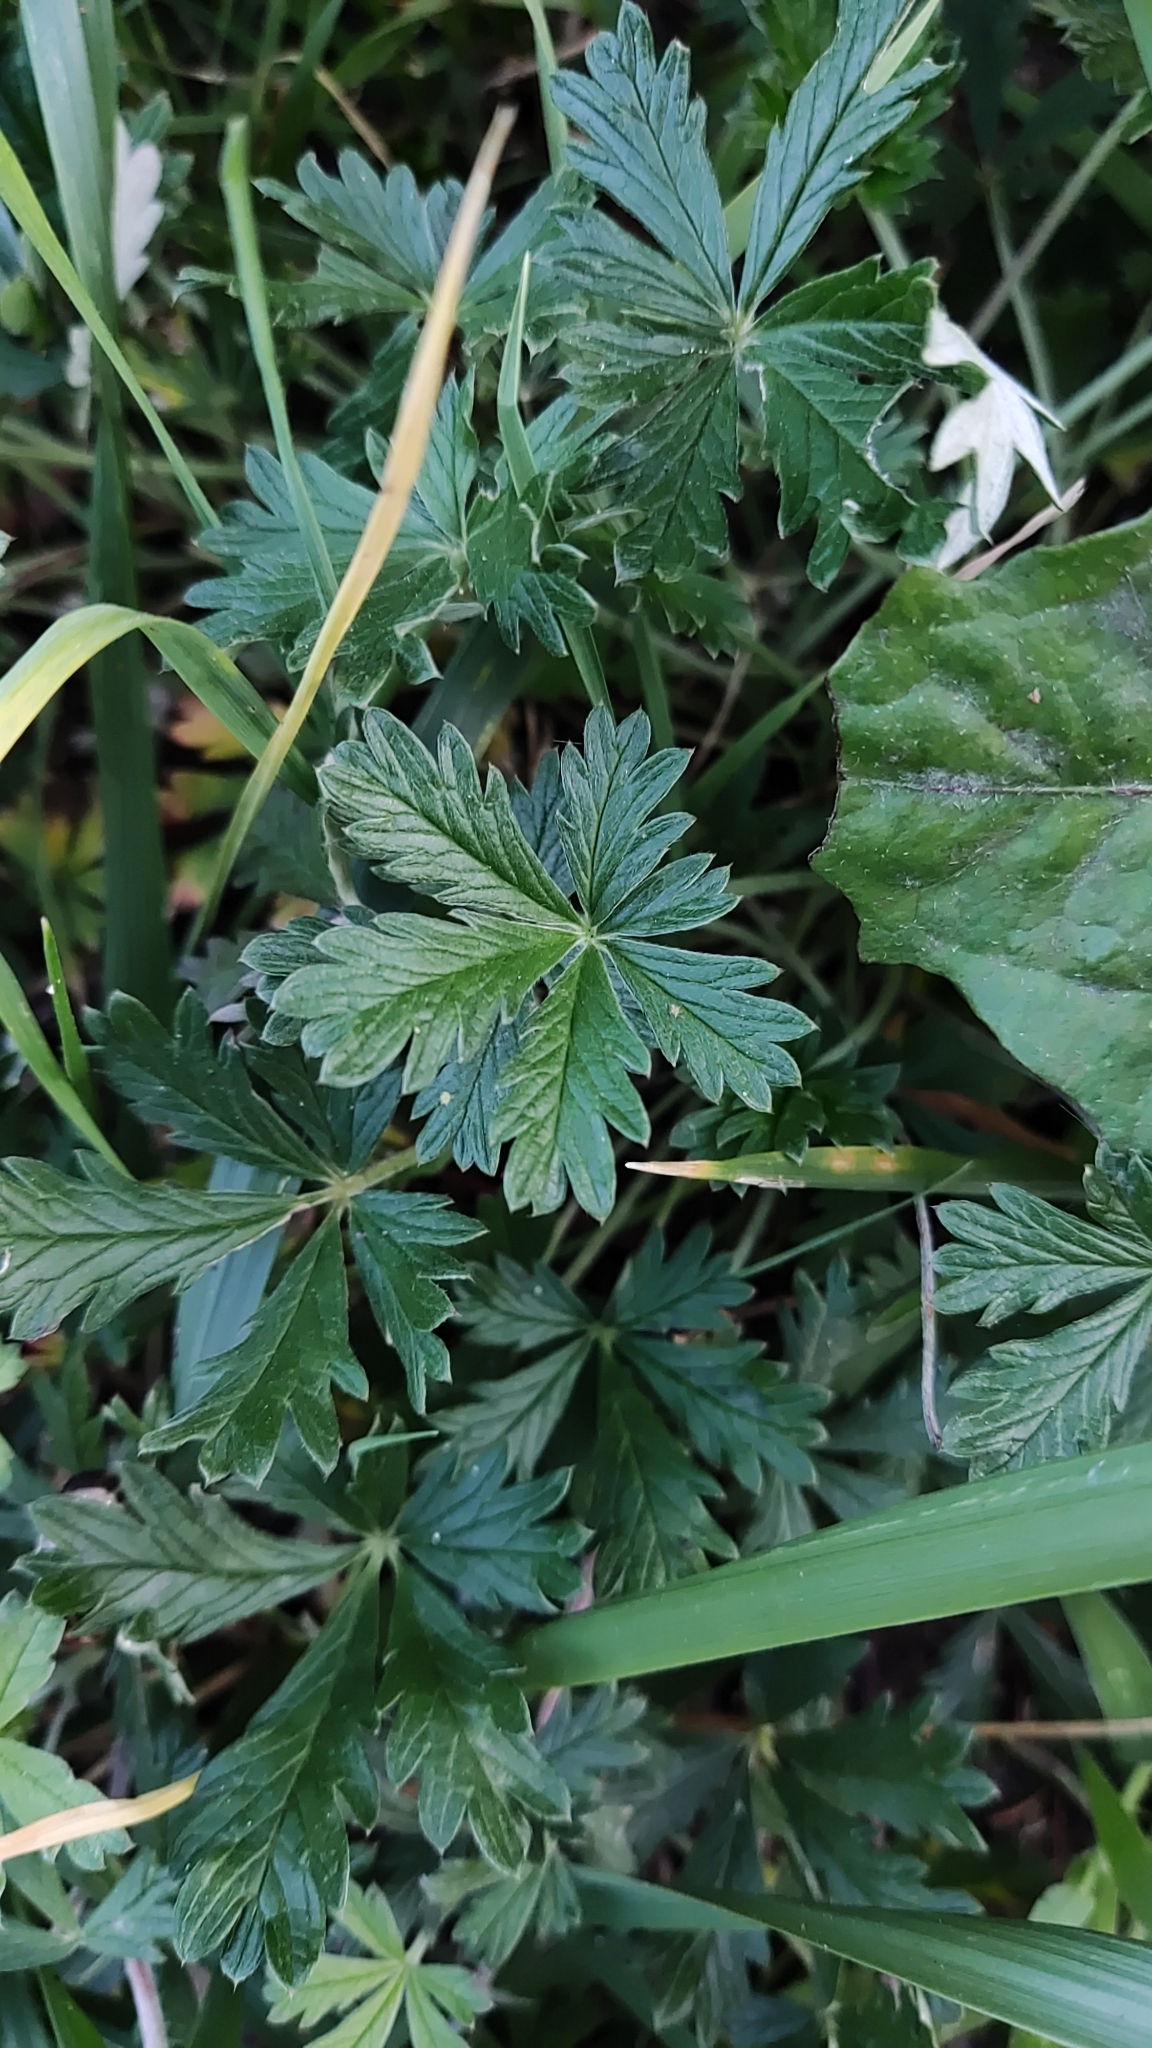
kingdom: Plantae
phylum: Tracheophyta
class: Magnoliopsida
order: Rosales
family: Rosaceae
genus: Potentilla
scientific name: Potentilla argentea
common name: Hoary cinquefoil
